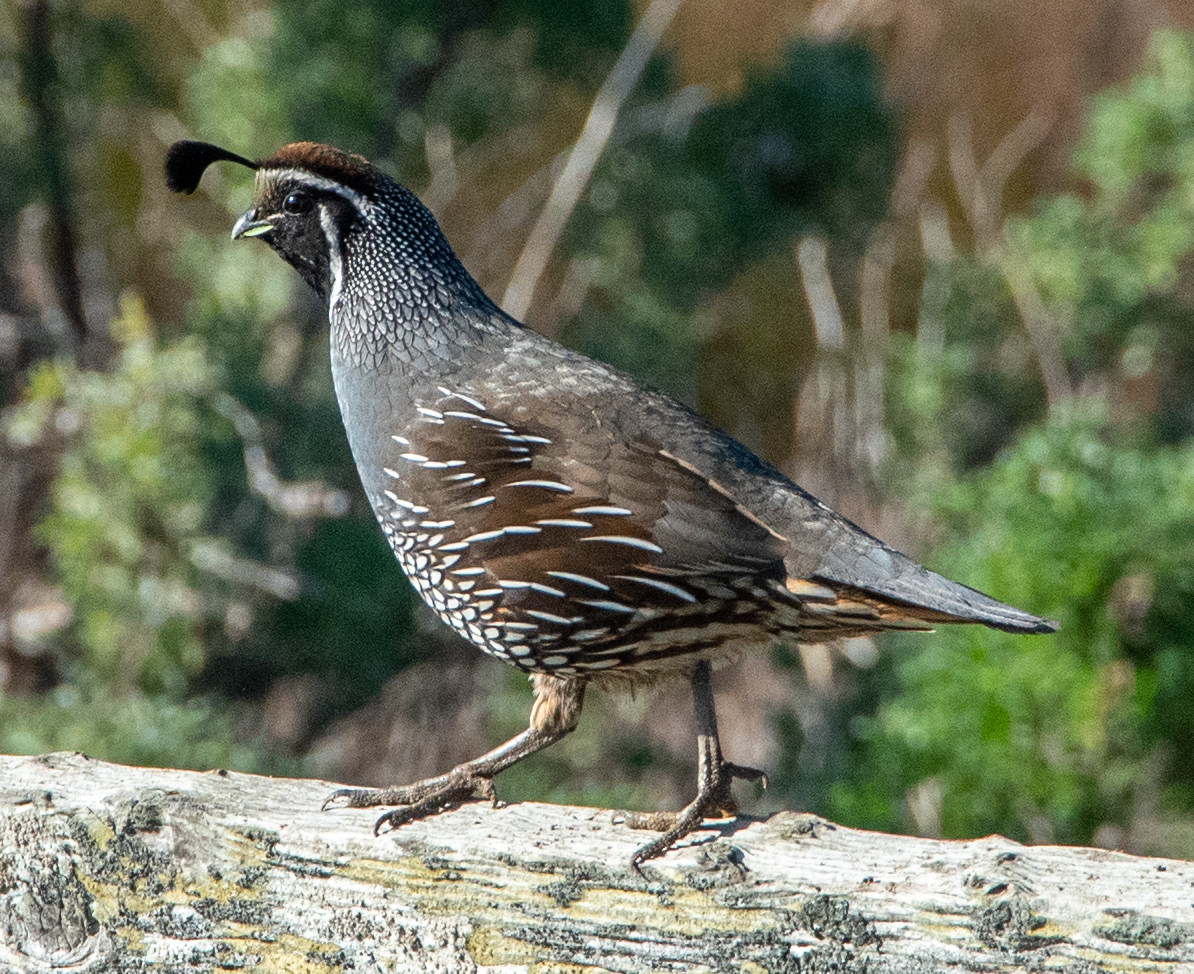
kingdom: Animalia
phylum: Chordata
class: Aves
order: Galliformes
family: Odontophoridae
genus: Callipepla
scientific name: Callipepla californica
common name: California quail
